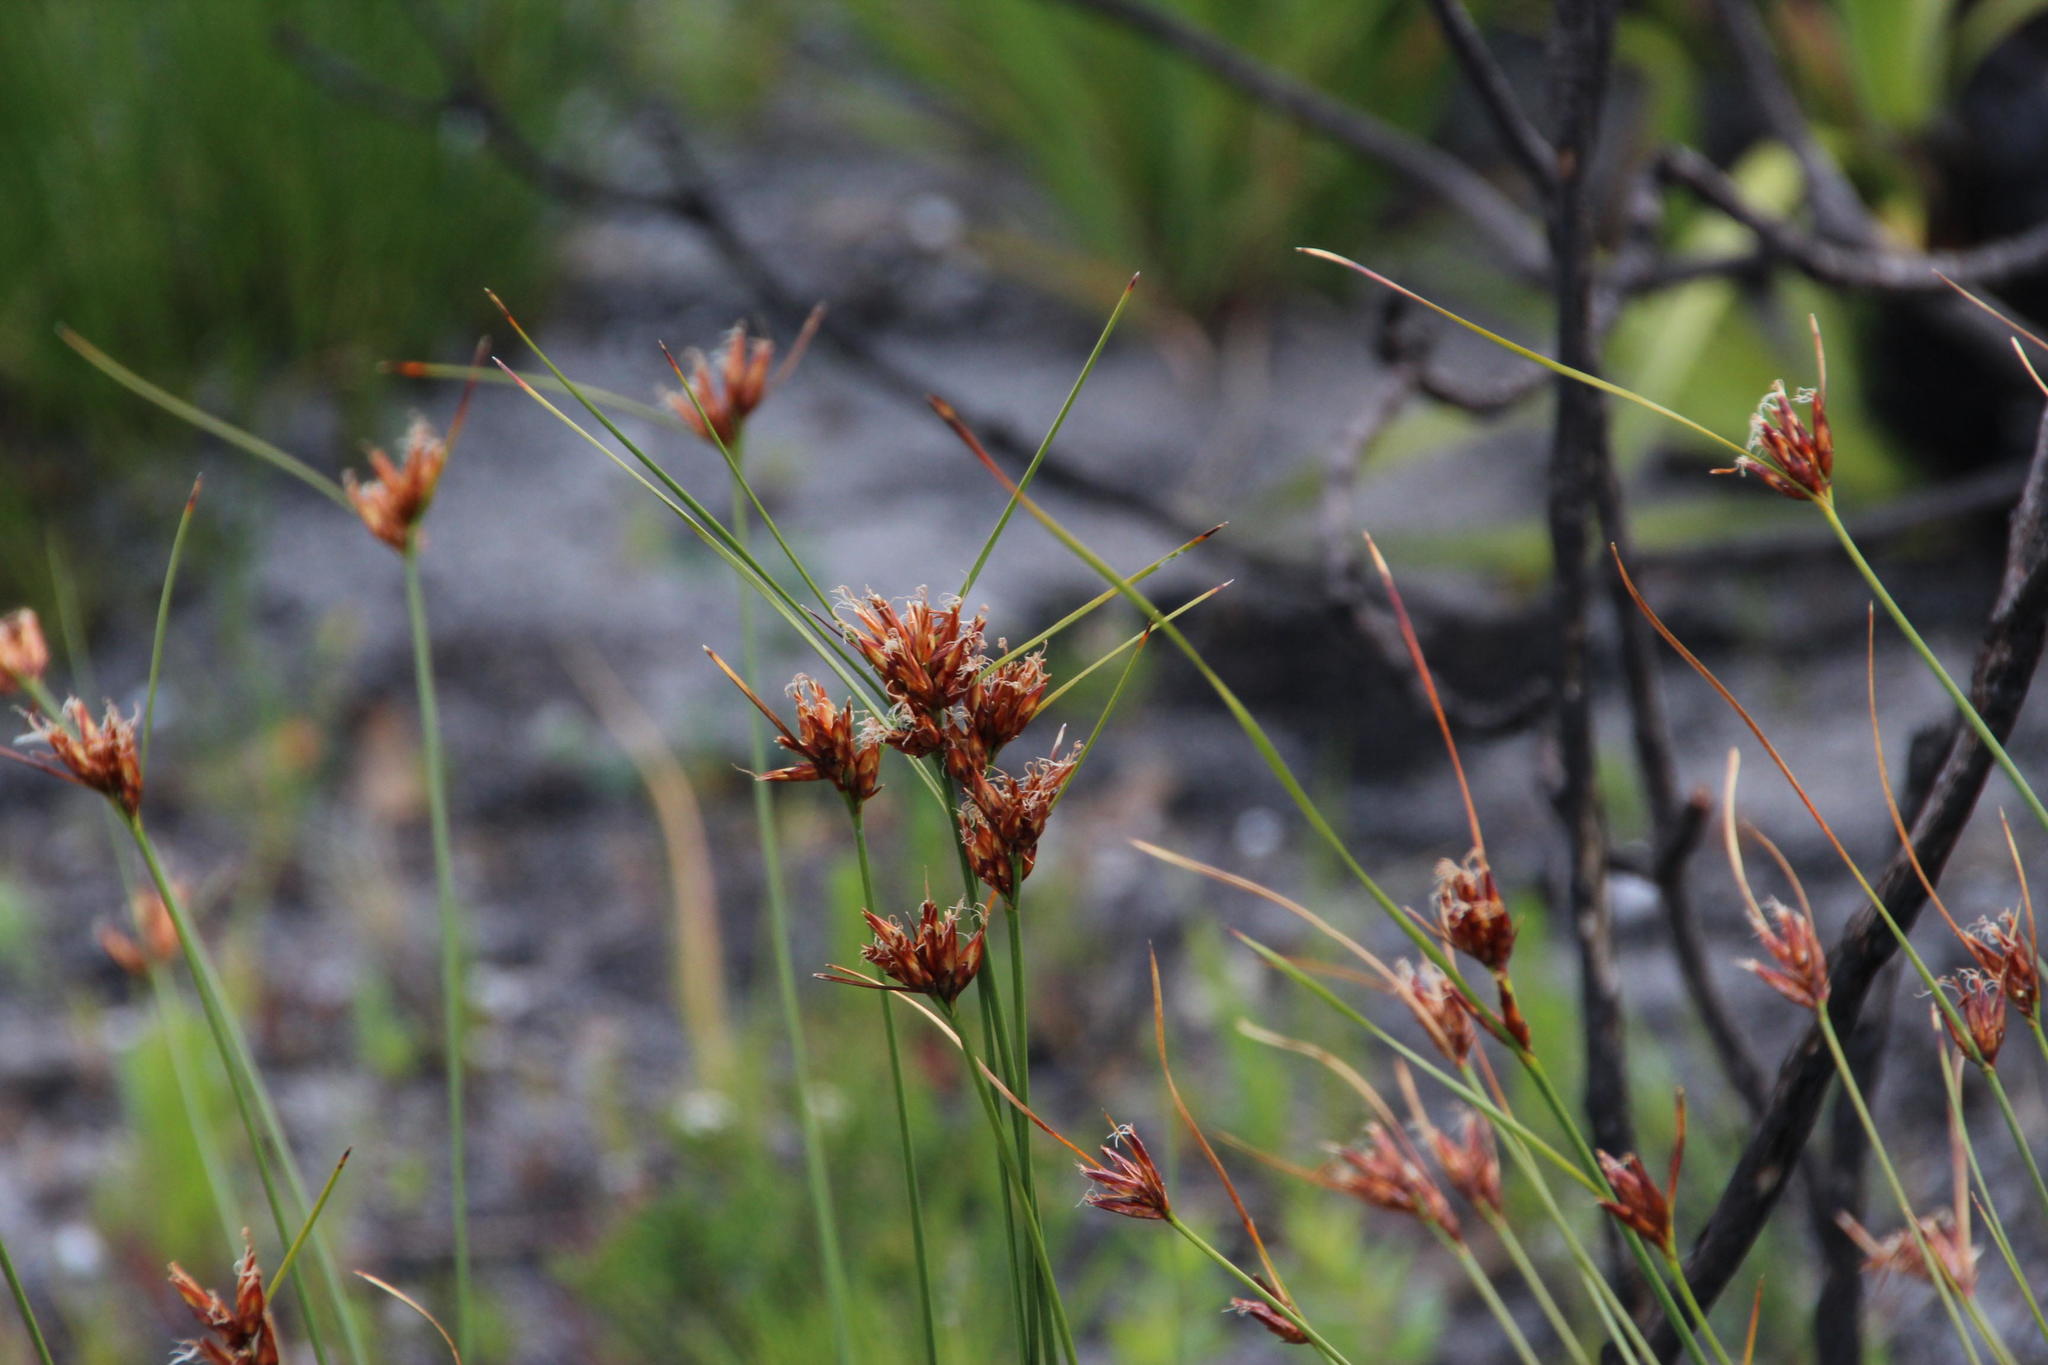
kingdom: Plantae
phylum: Tracheophyta
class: Liliopsida
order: Poales
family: Cyperaceae
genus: Schoenus
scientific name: Schoenus compar
